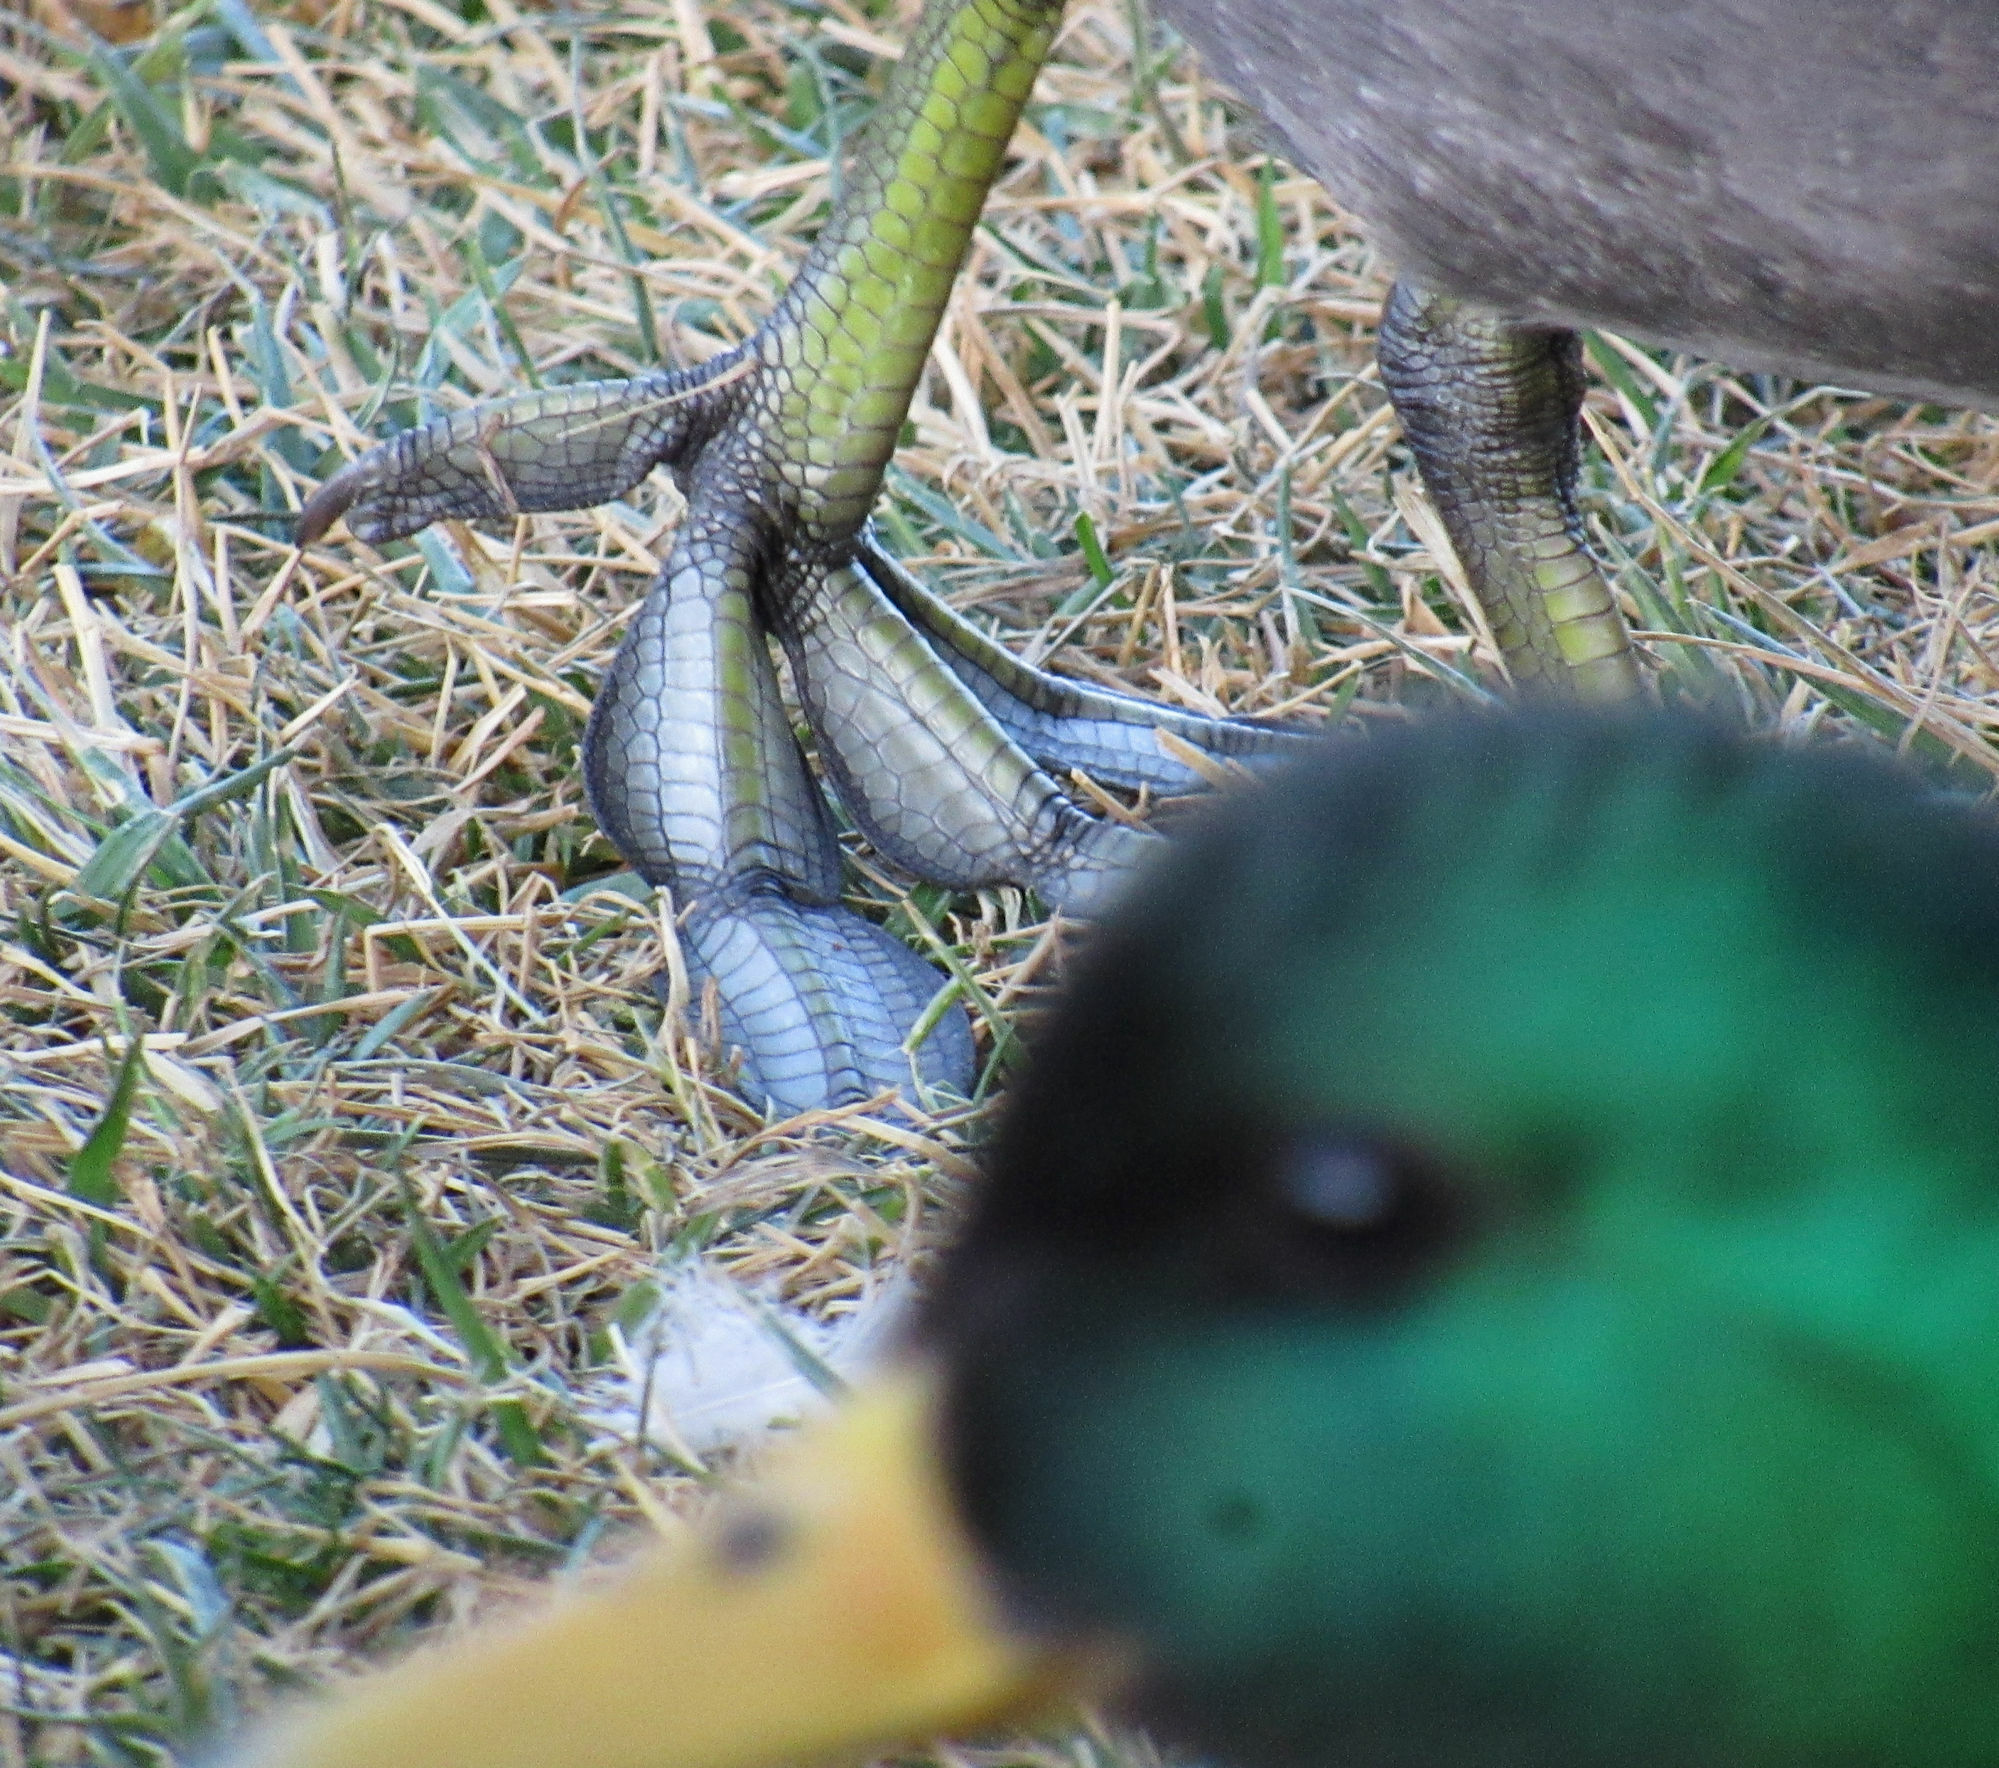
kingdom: Animalia
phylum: Chordata
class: Aves
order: Gruiformes
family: Rallidae
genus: Fulica
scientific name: Fulica americana
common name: American coot
